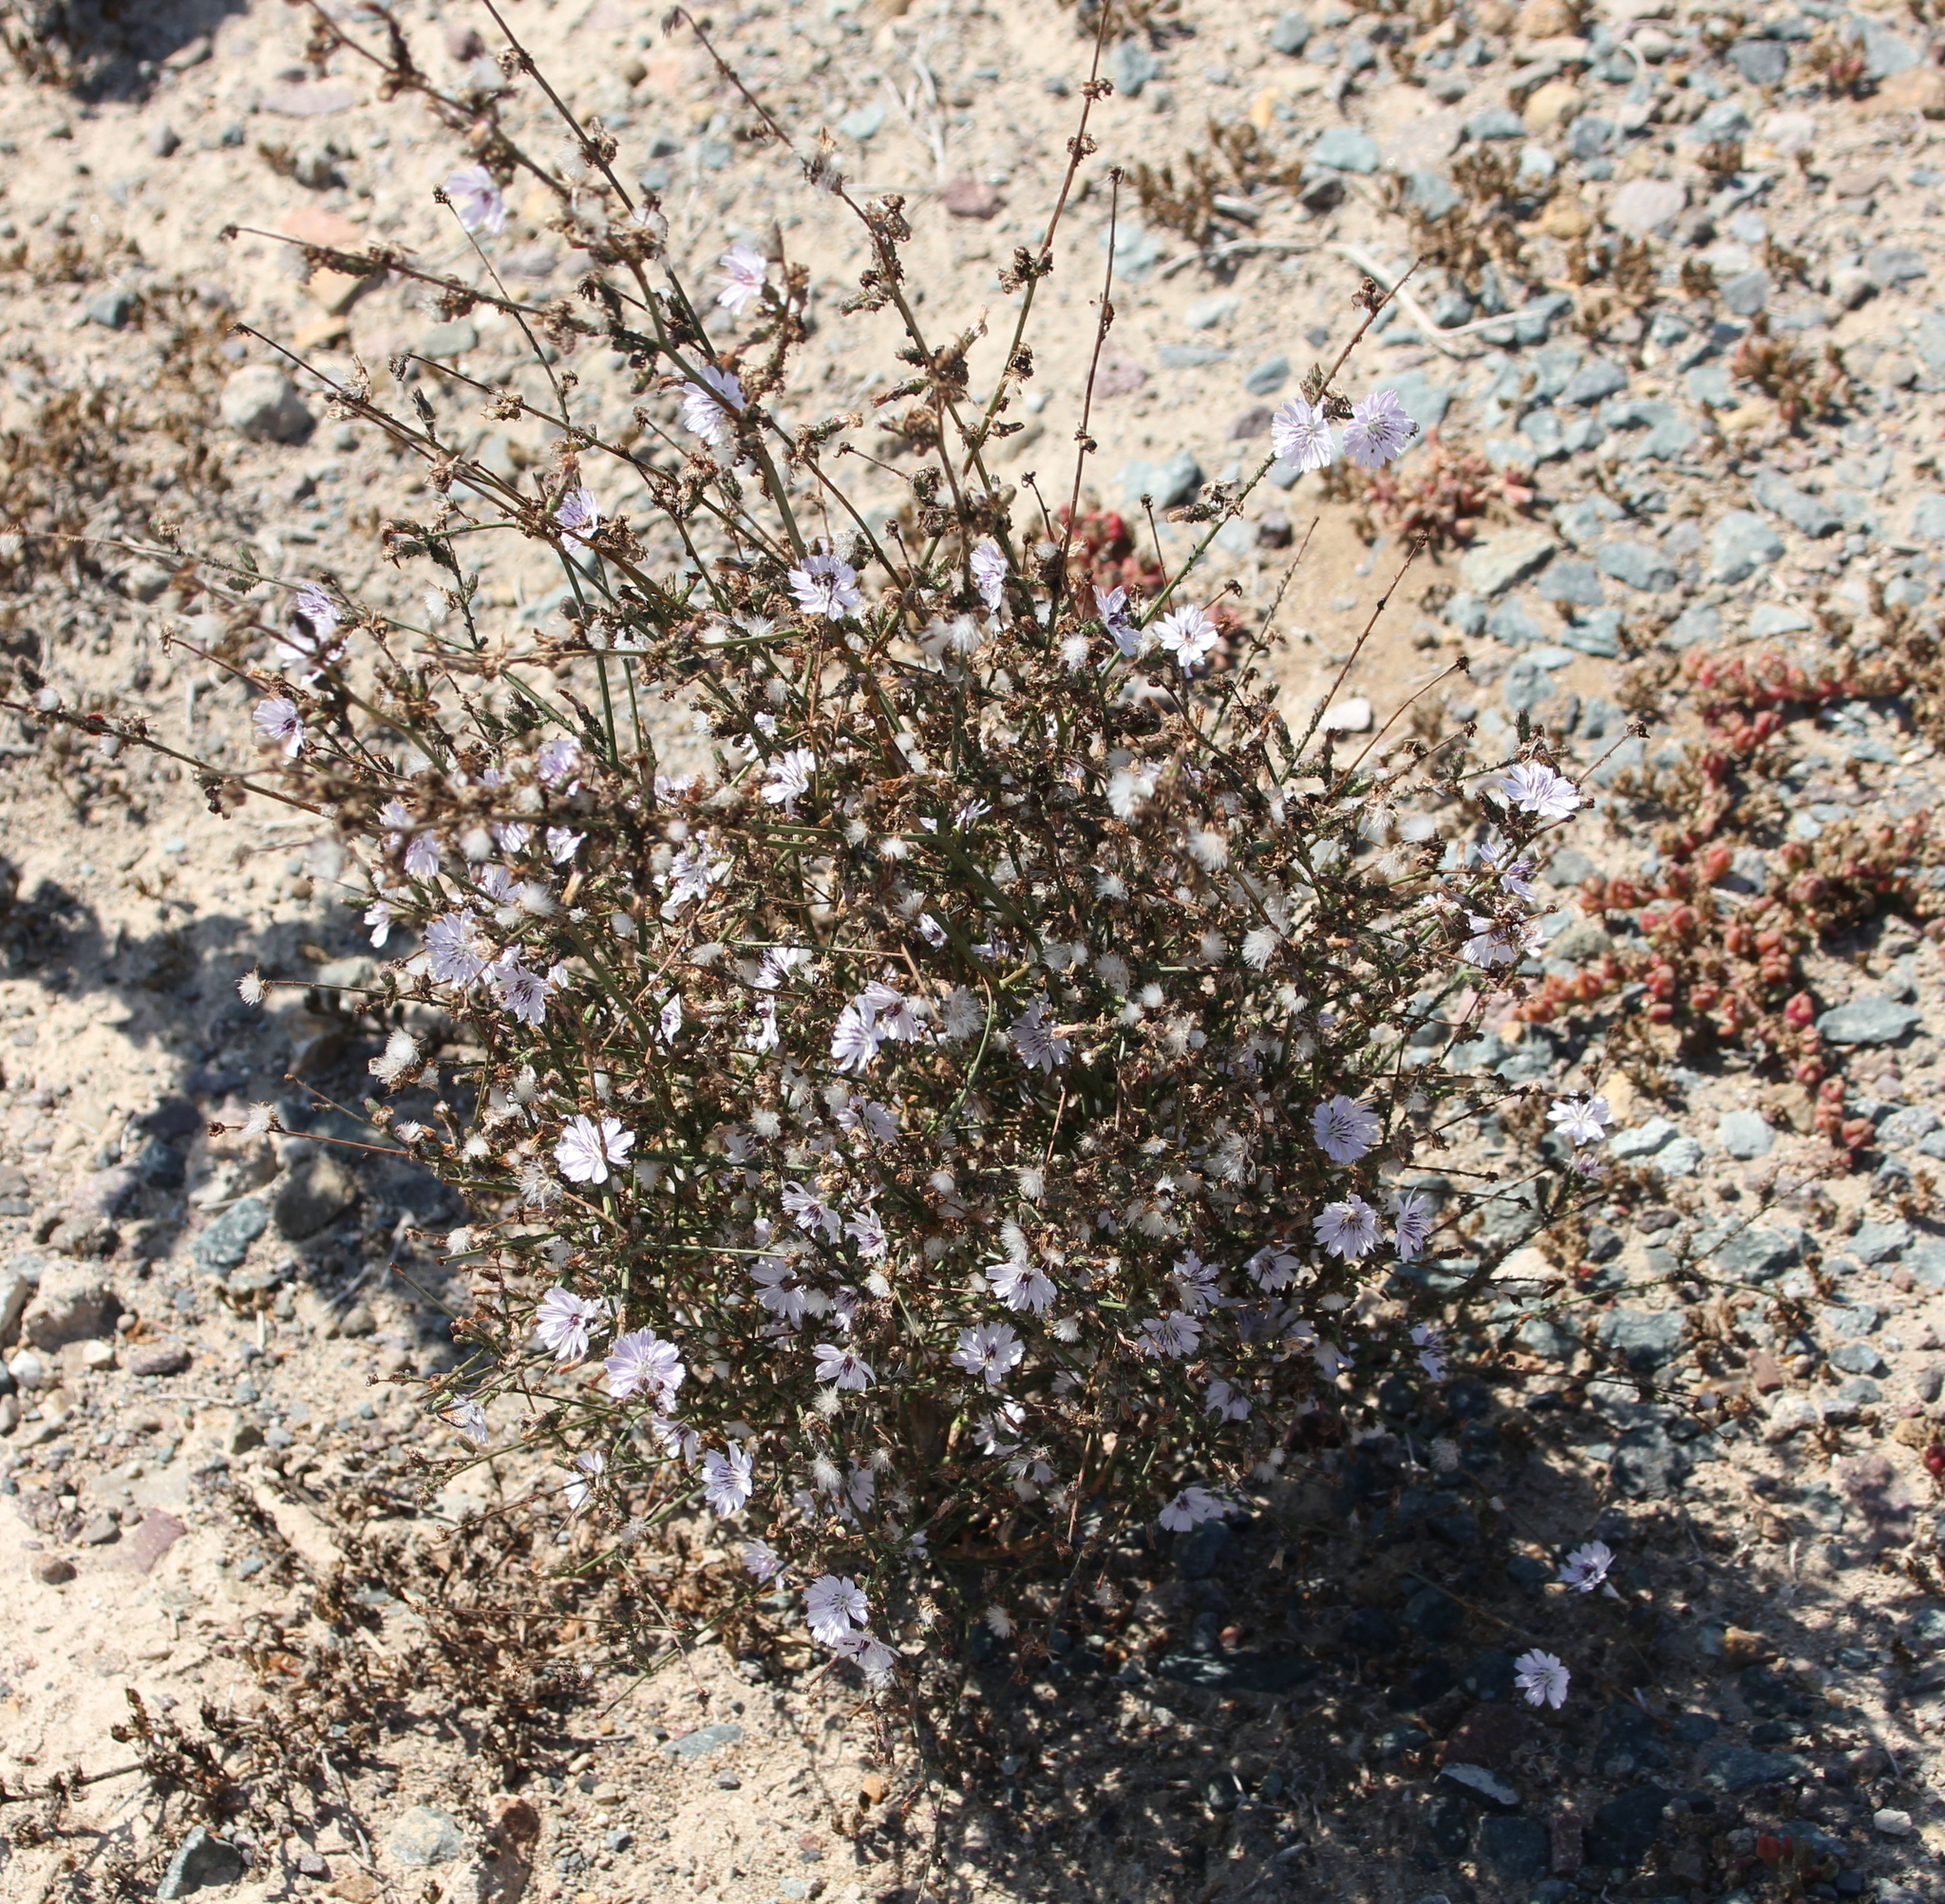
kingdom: Plantae
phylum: Tracheophyta
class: Magnoliopsida
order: Asterales
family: Asteraceae
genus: Stephanomeria
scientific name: Stephanomeria diegensis
